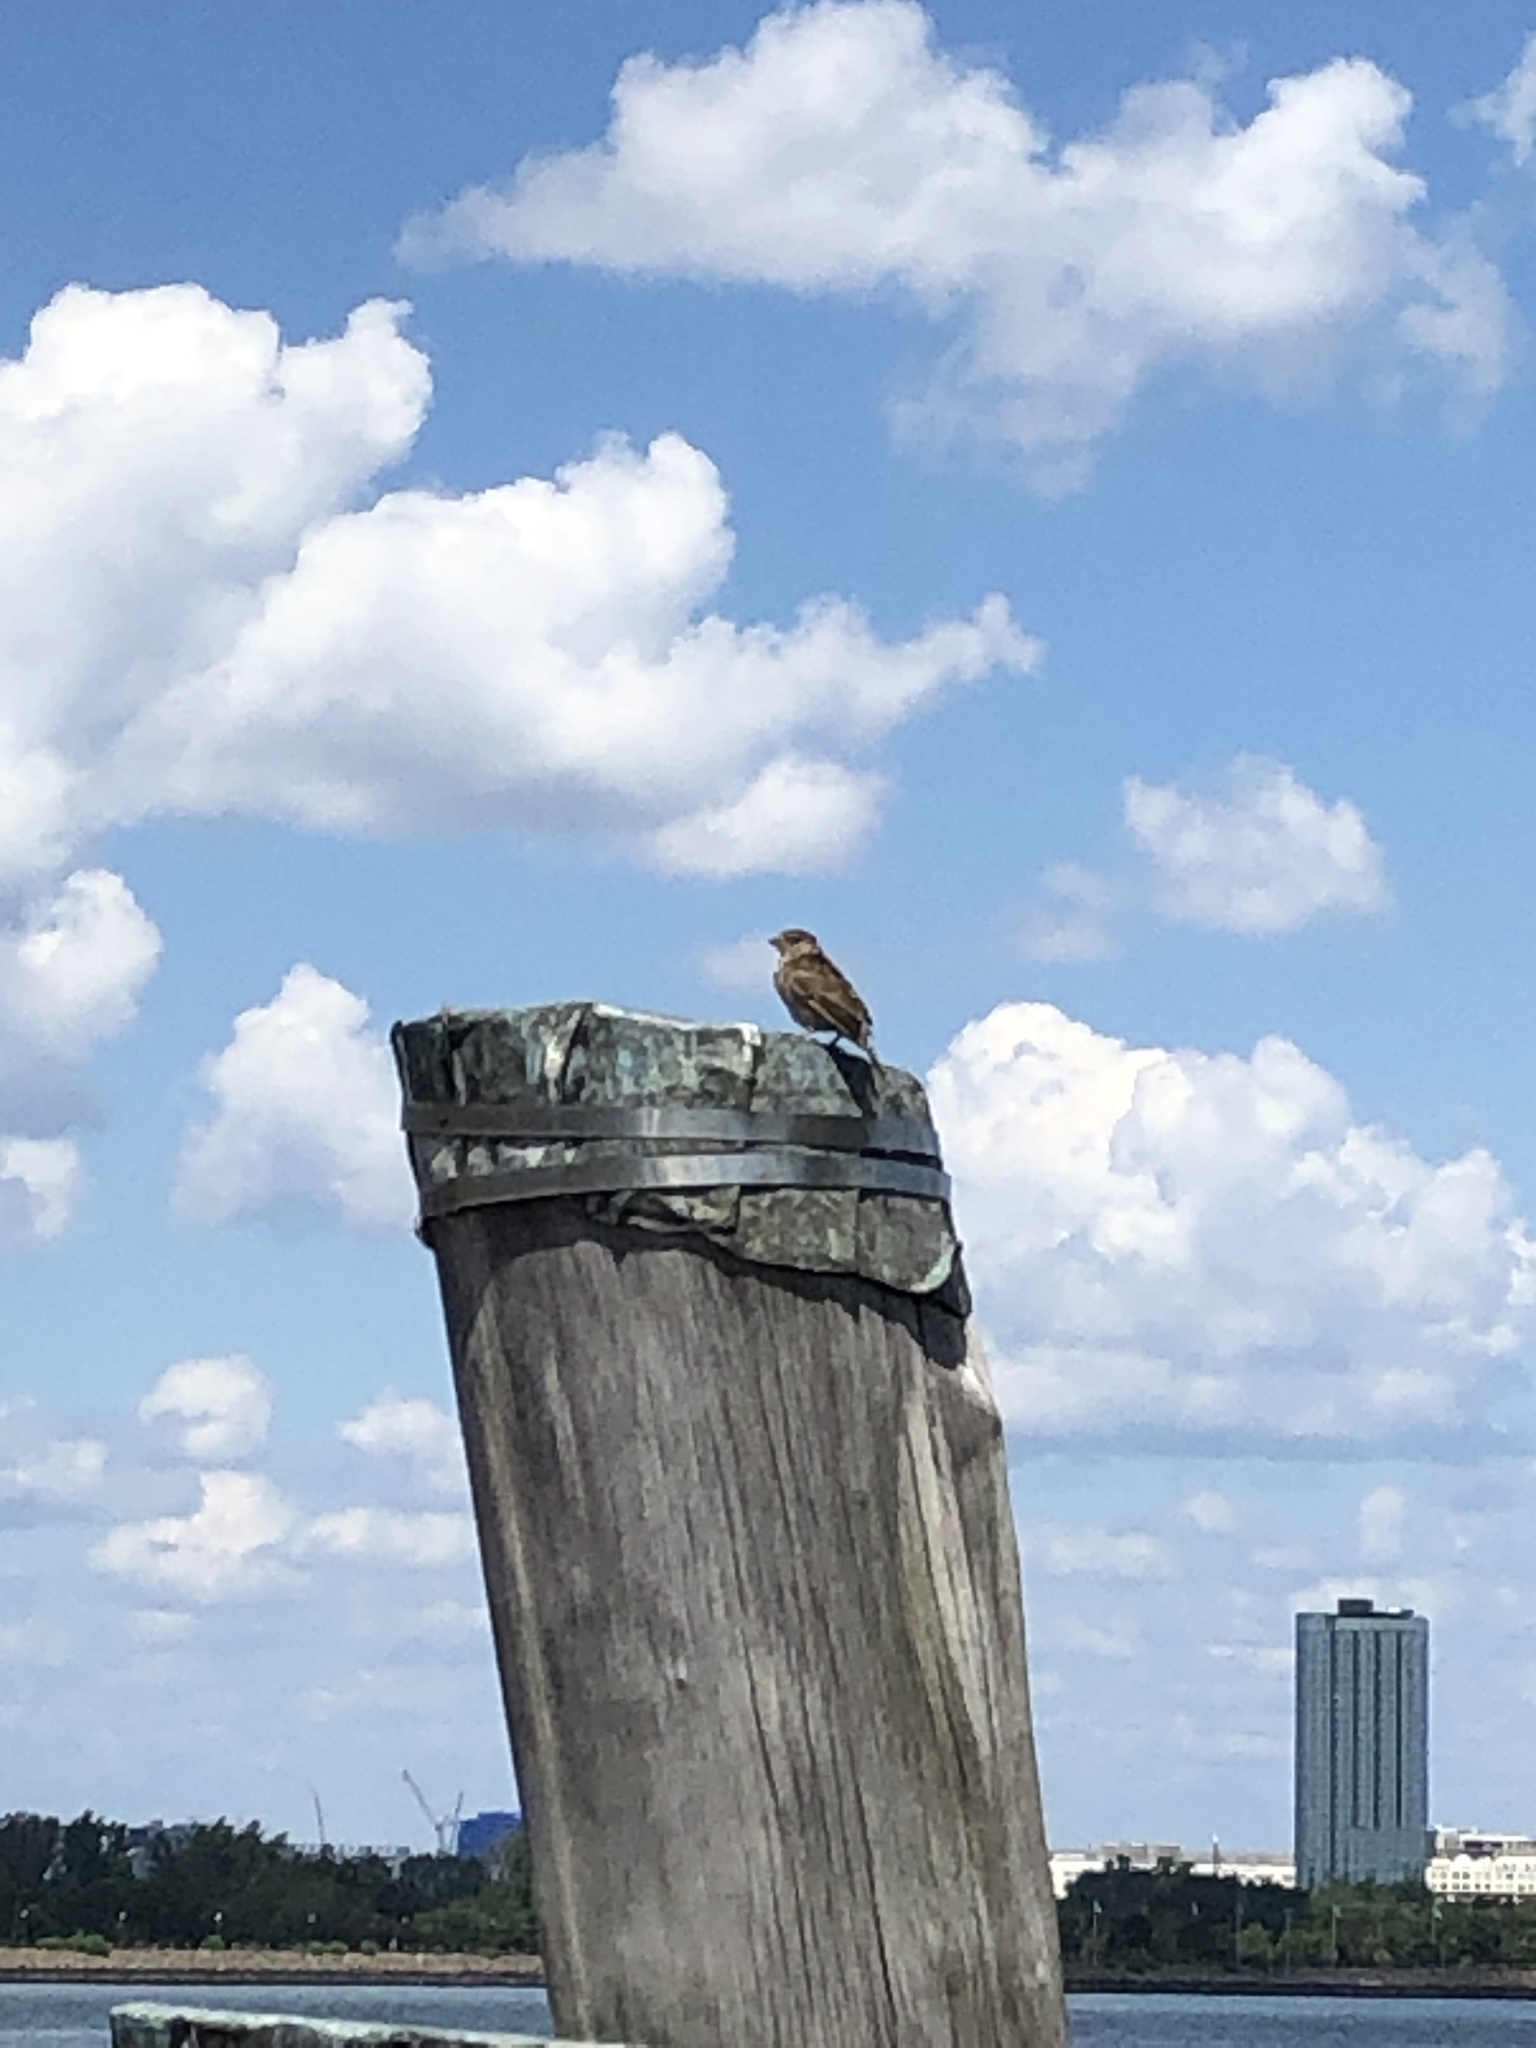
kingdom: Animalia
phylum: Chordata
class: Aves
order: Passeriformes
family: Passeridae
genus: Passer
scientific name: Passer domesticus
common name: House sparrow
